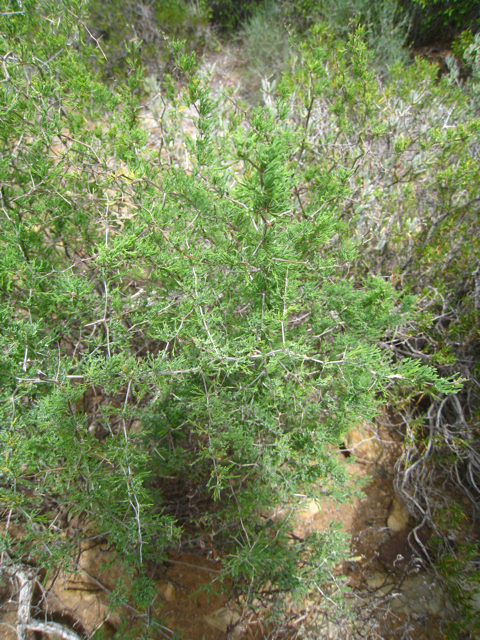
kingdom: Plantae
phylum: Tracheophyta
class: Liliopsida
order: Asparagales
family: Asparagaceae
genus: Asparagus
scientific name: Asparagus suaveolens
